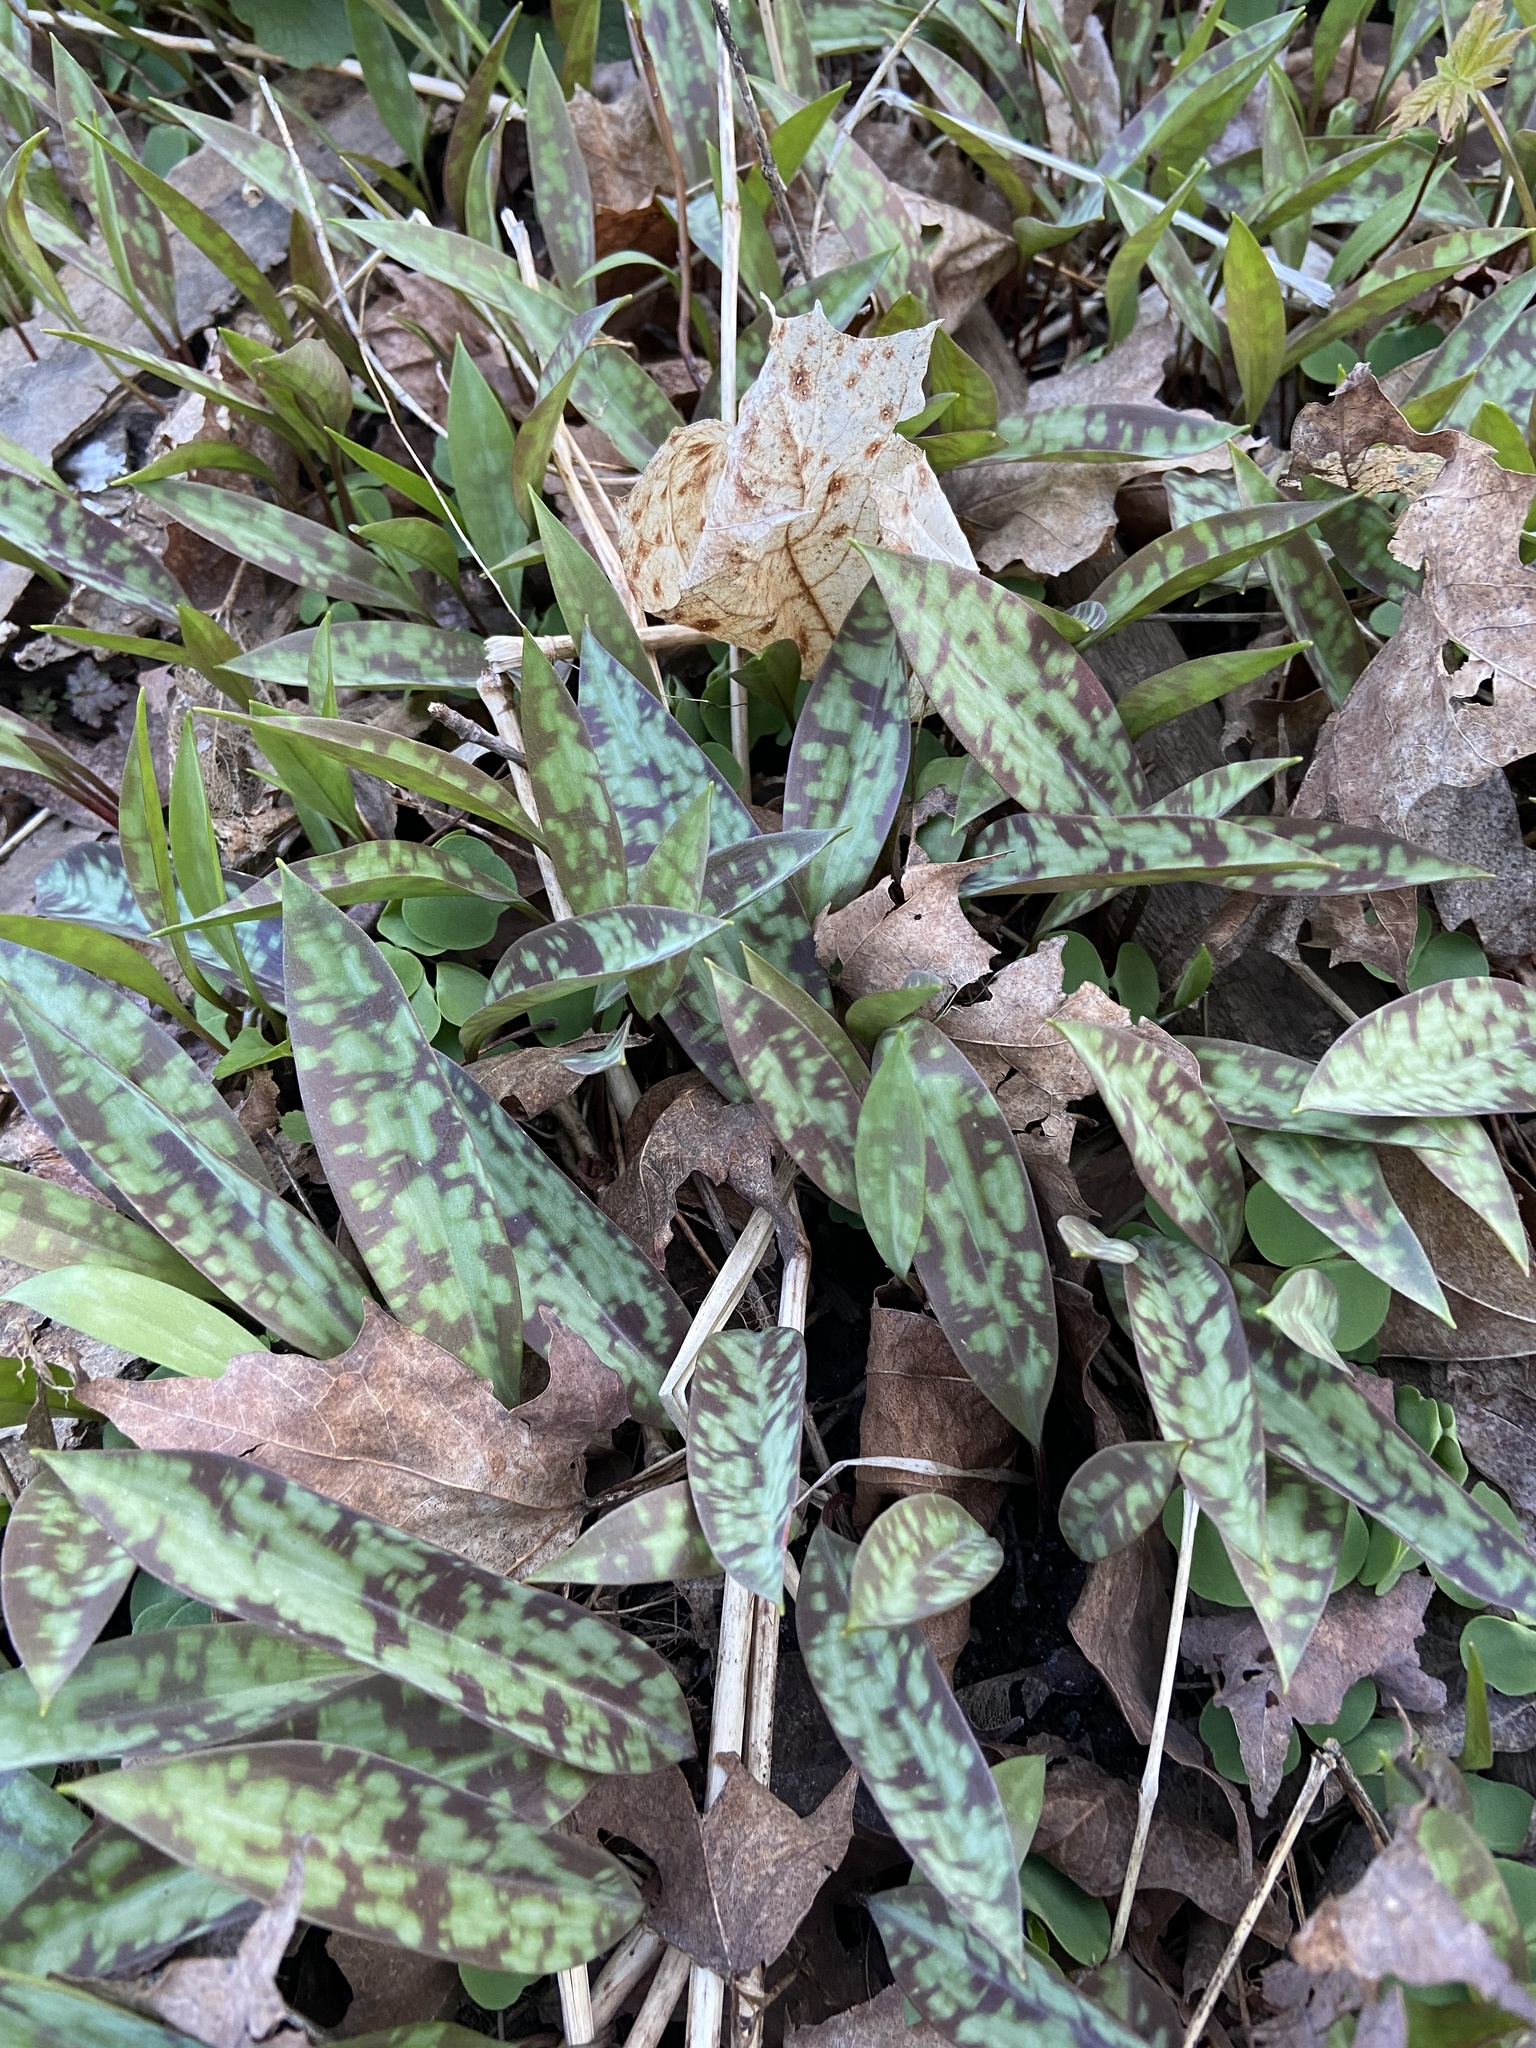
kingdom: Plantae
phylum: Tracheophyta
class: Liliopsida
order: Liliales
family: Liliaceae
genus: Erythronium
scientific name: Erythronium americanum
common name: Yellow adder's-tongue
